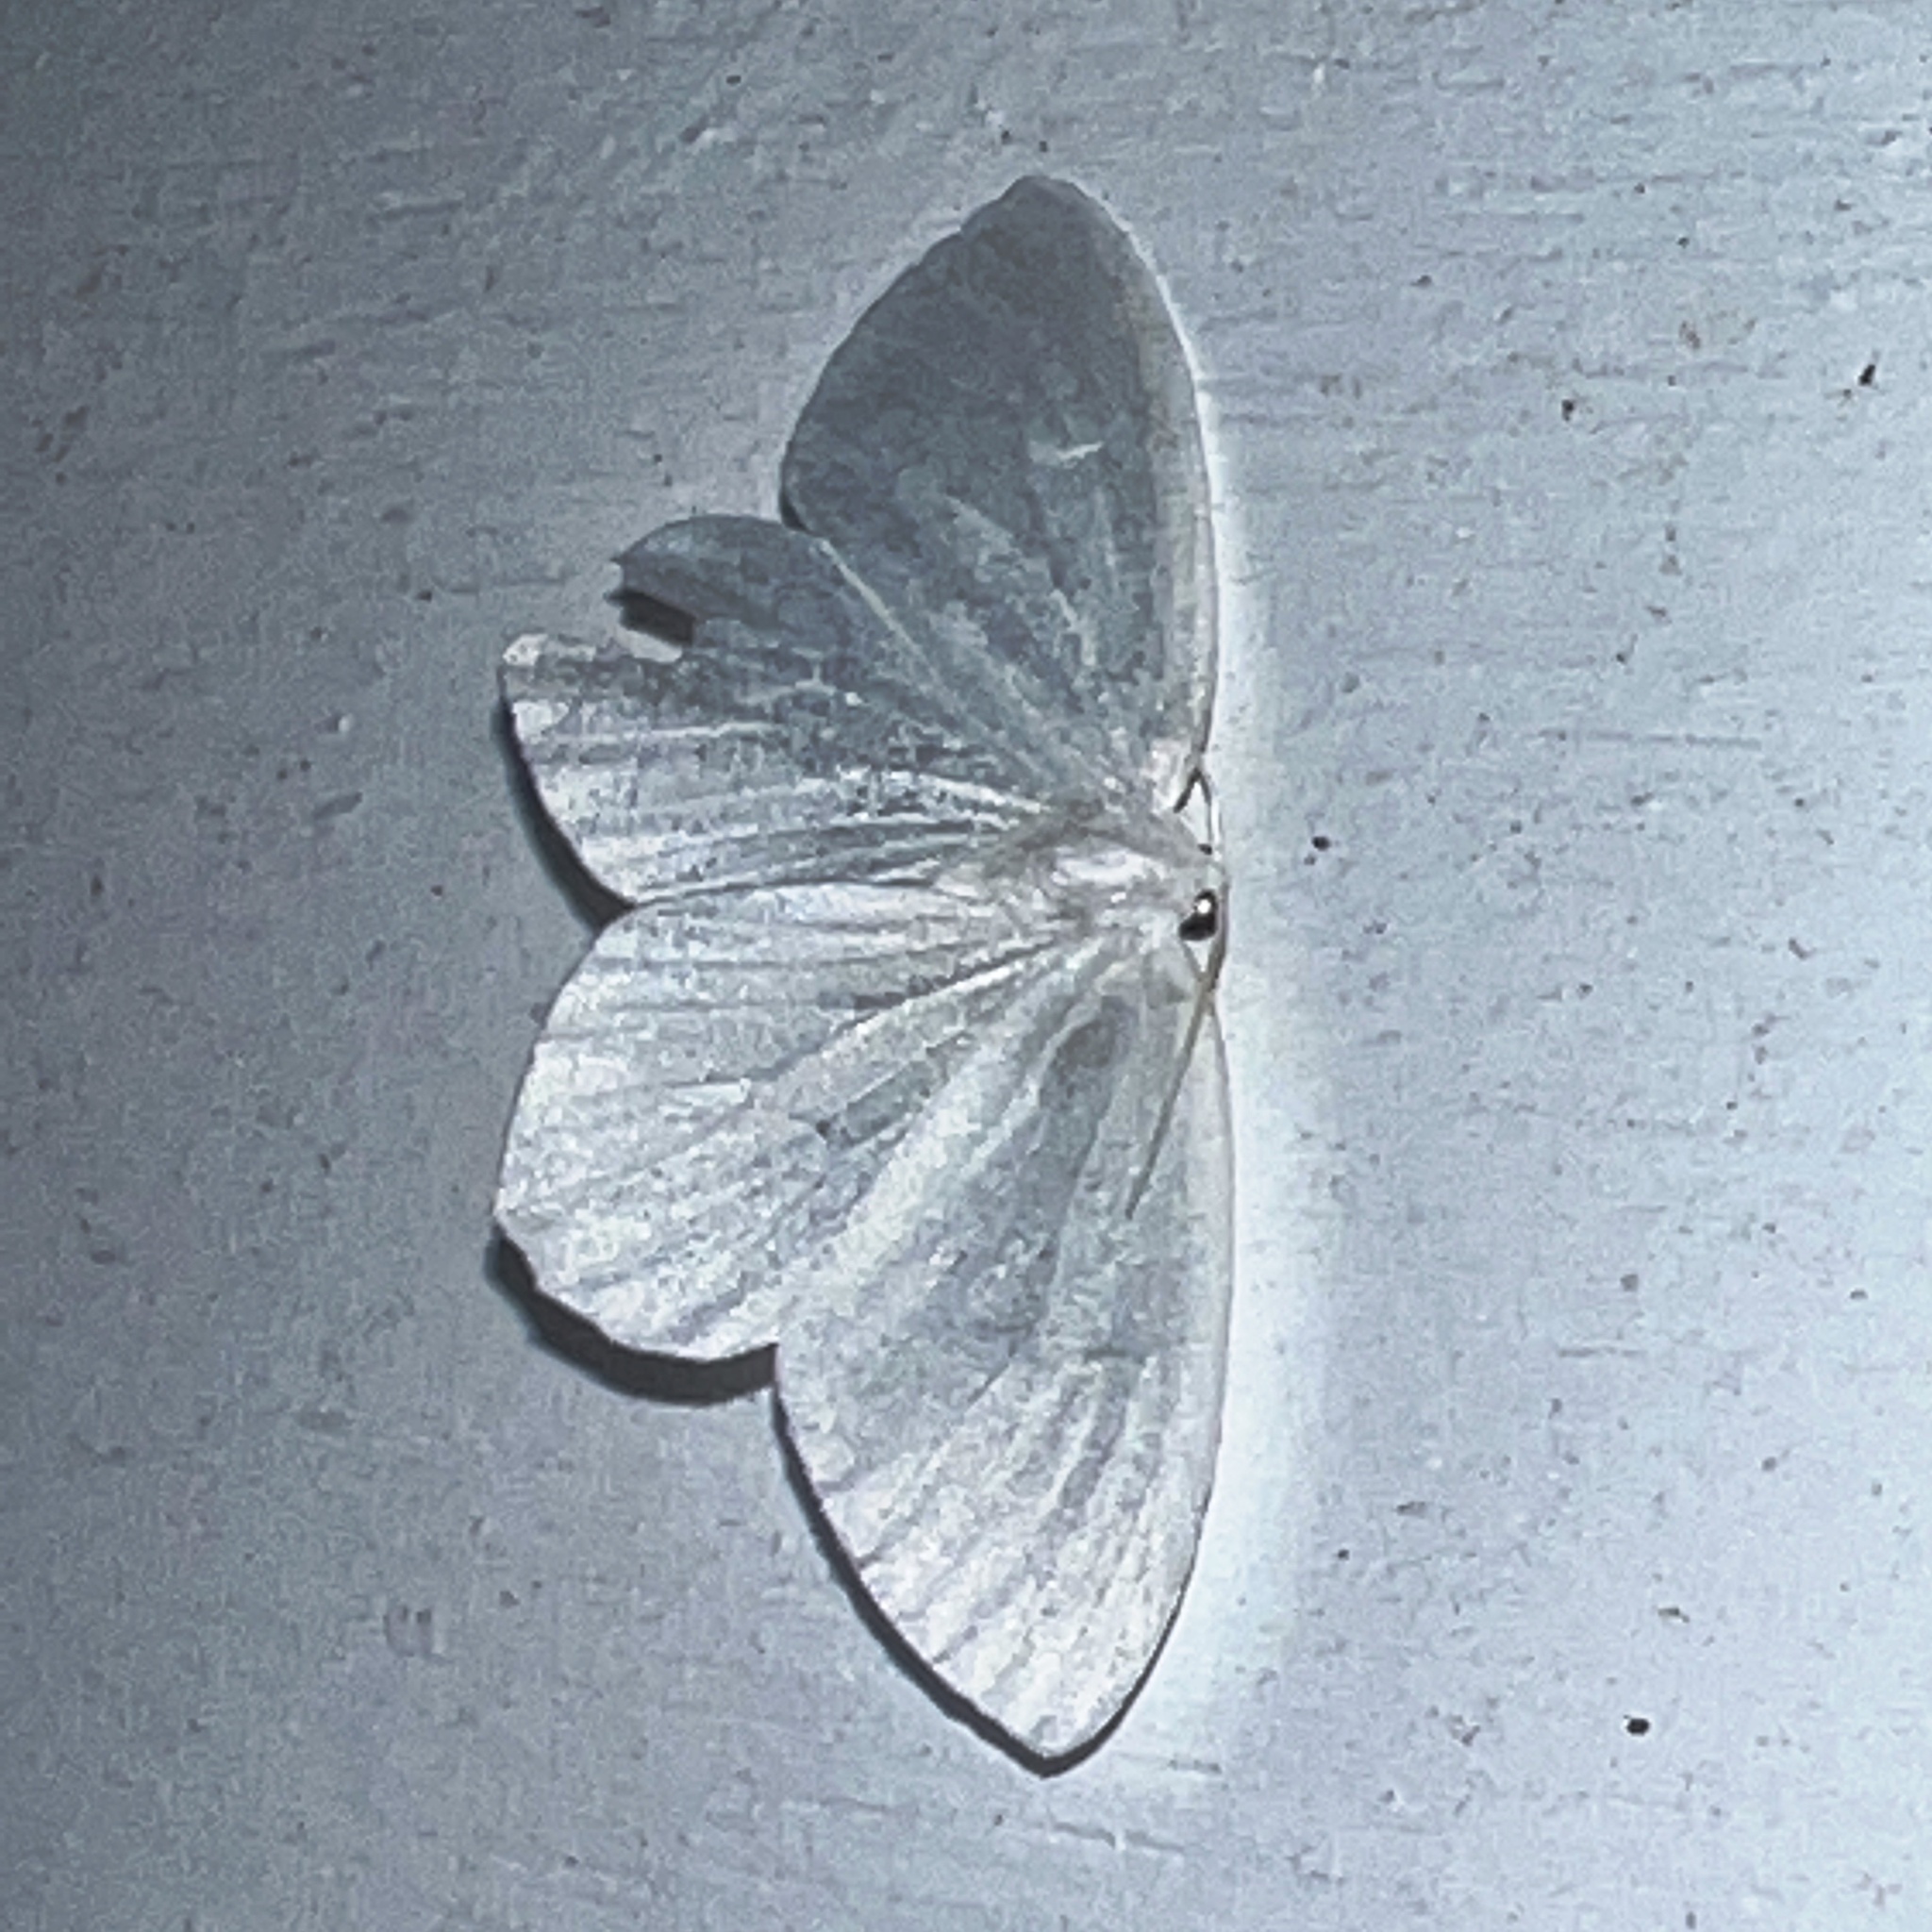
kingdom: Animalia
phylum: Arthropoda
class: Insecta
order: Lepidoptera
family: Geometridae
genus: Eugonobapta
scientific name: Eugonobapta nivosaria
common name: Snowy geometer
